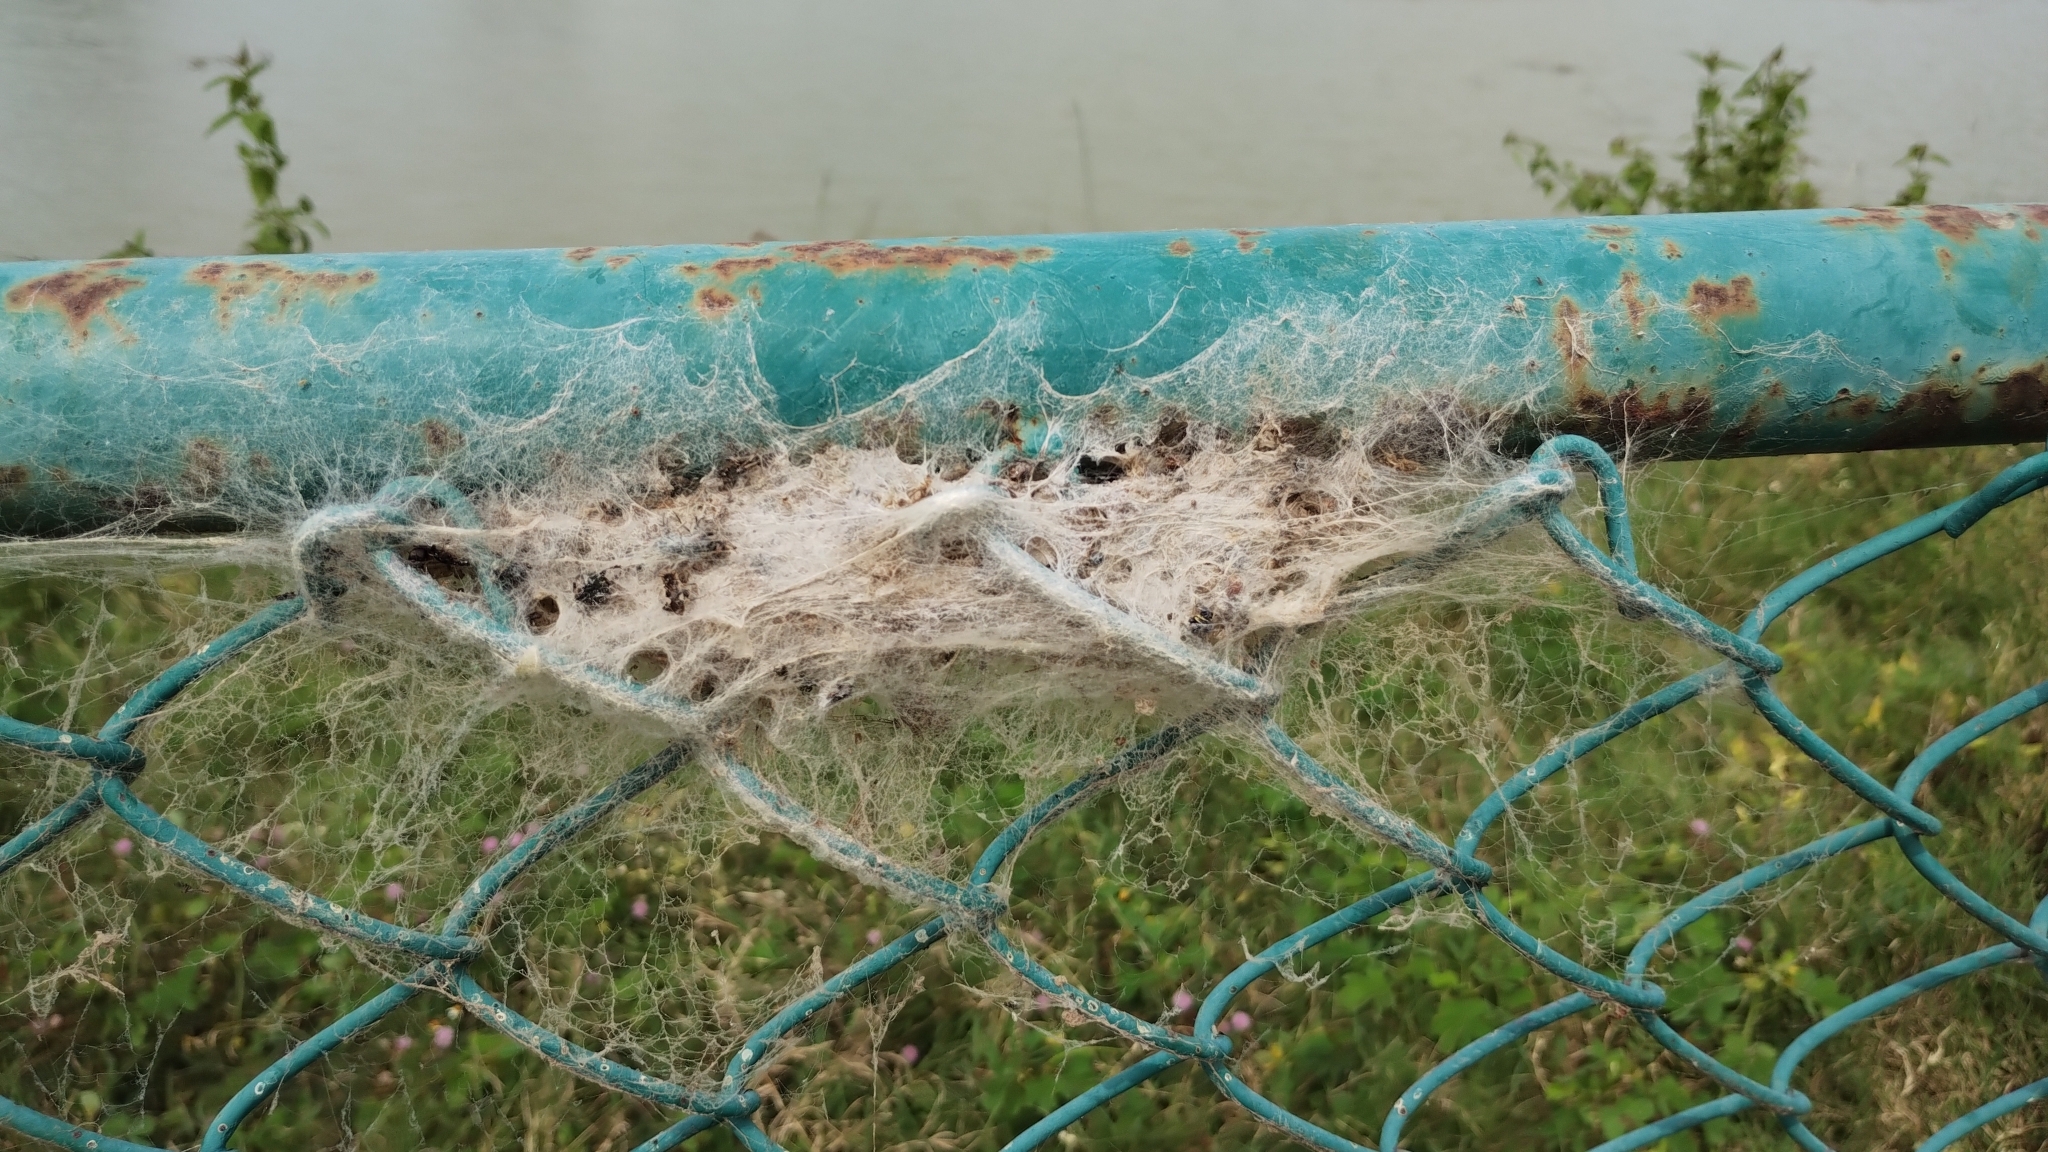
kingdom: Animalia
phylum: Arthropoda
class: Arachnida
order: Araneae
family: Eresidae
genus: Stegodyphus
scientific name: Stegodyphus sarasinorum
